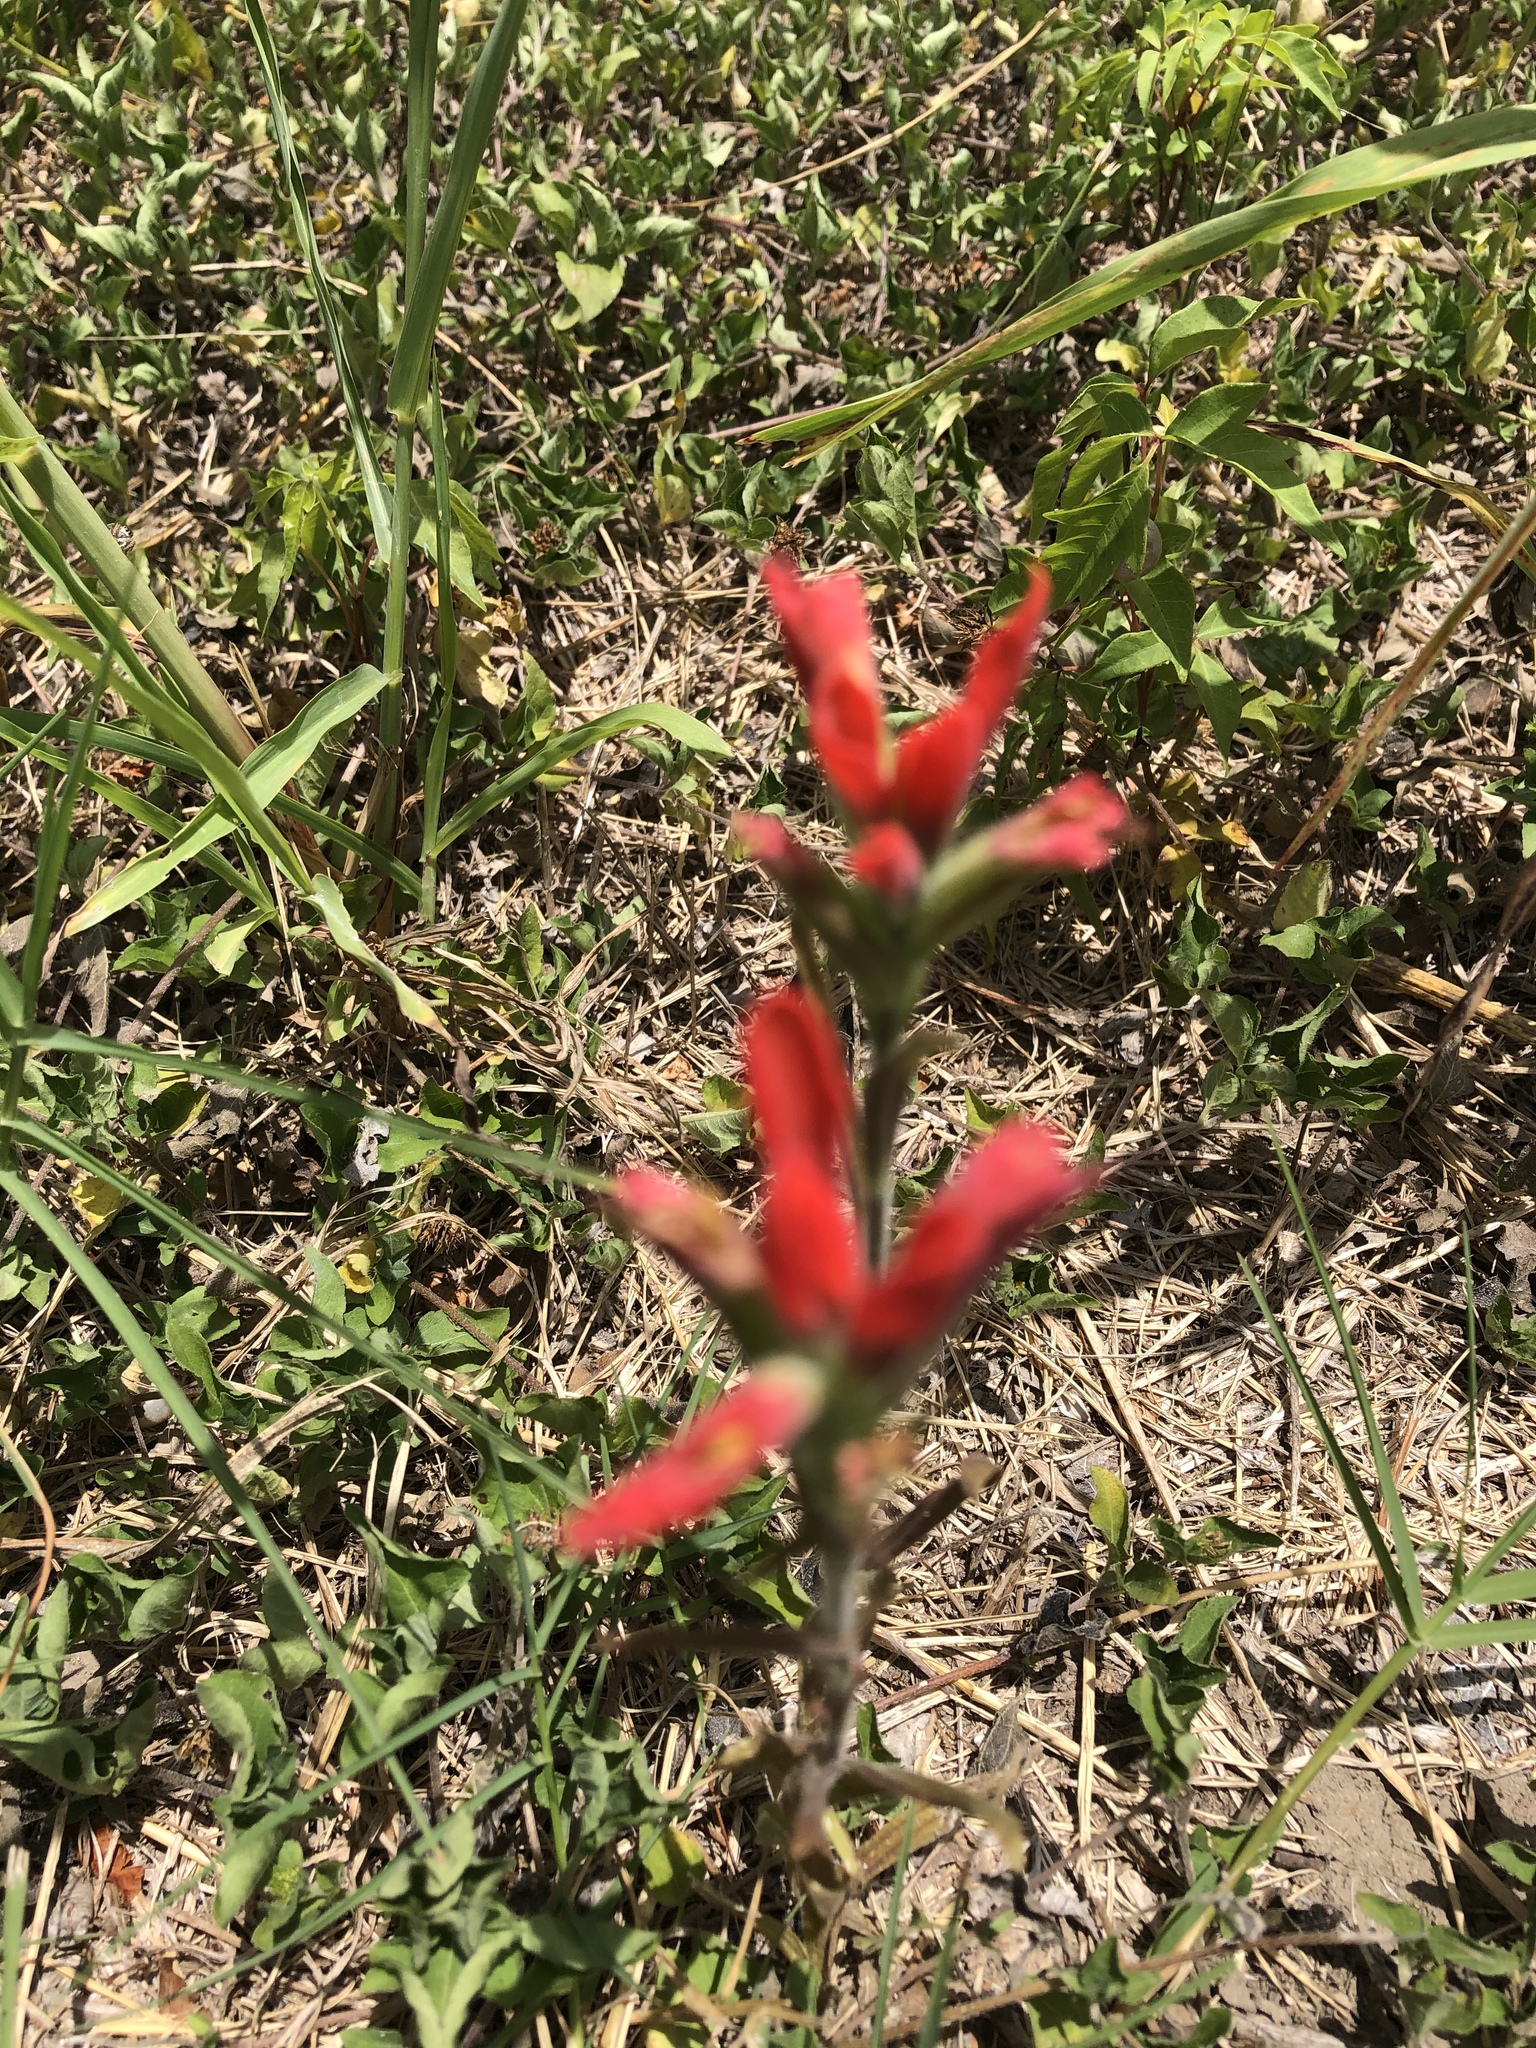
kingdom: Plantae
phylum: Tracheophyta
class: Magnoliopsida
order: Lamiales
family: Orobanchaceae
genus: Castilleja
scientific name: Castilleja indivisa
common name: Texas paintbrush
